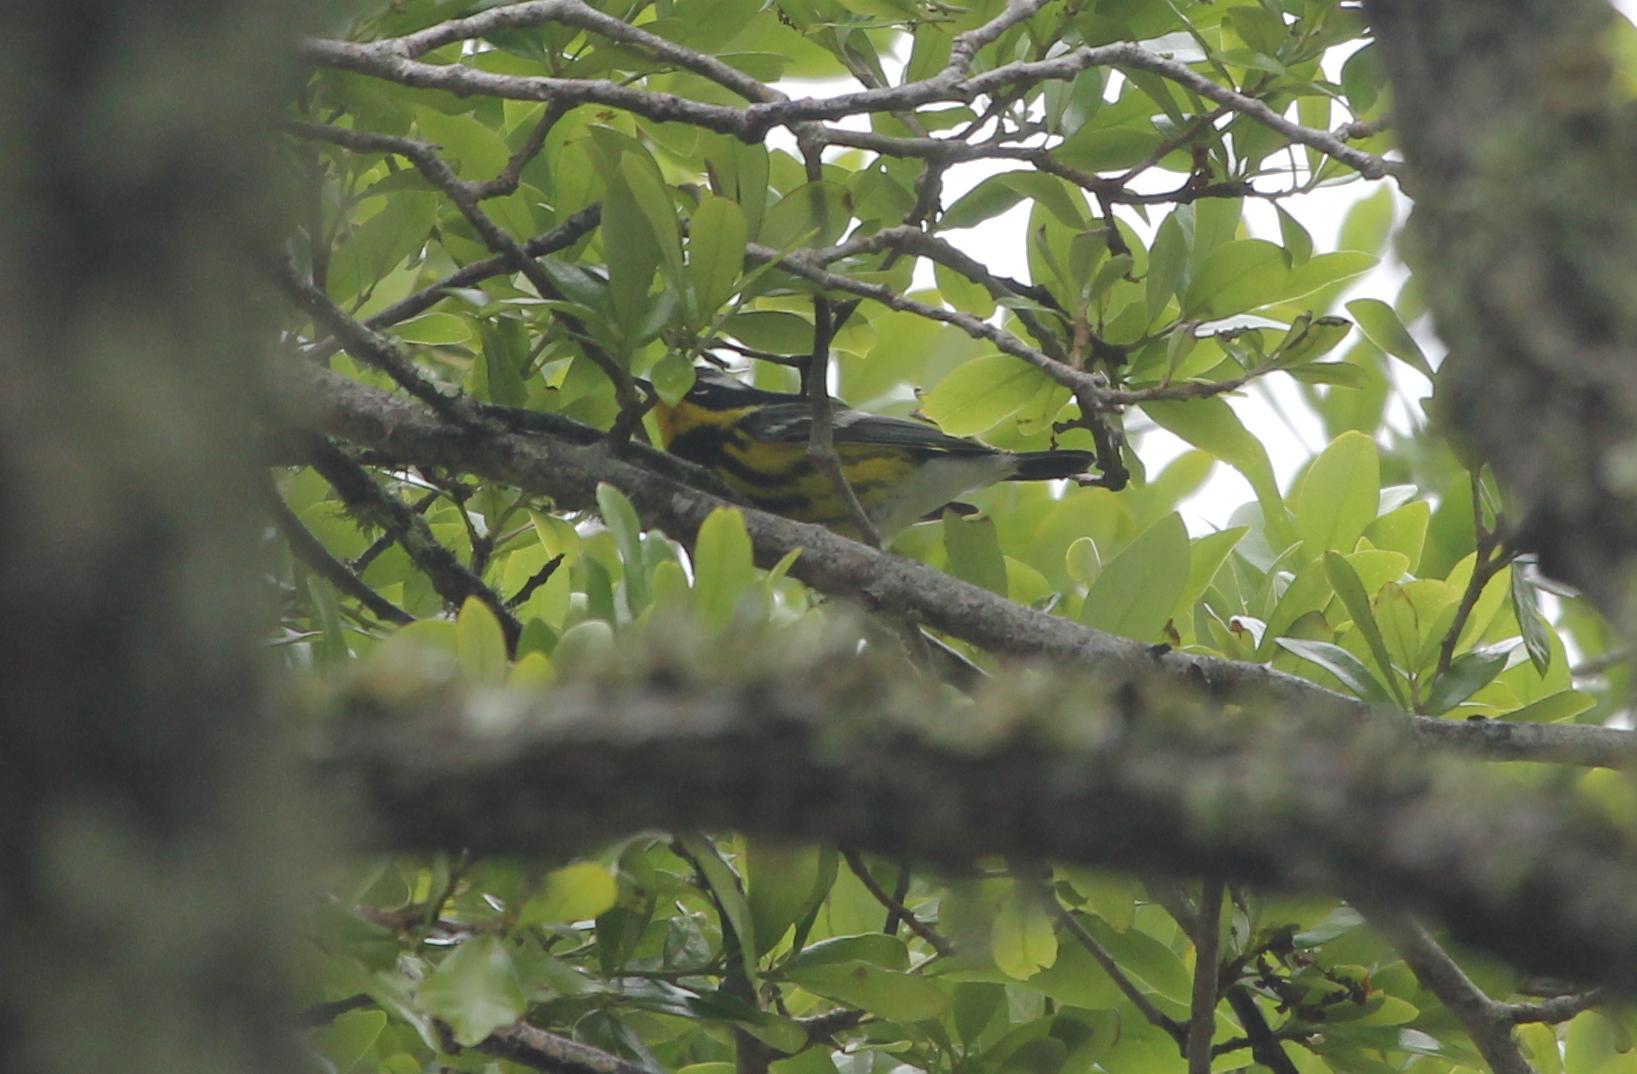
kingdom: Animalia
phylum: Chordata
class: Aves
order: Passeriformes
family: Parulidae
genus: Setophaga
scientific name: Setophaga magnolia
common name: Magnolia warbler
